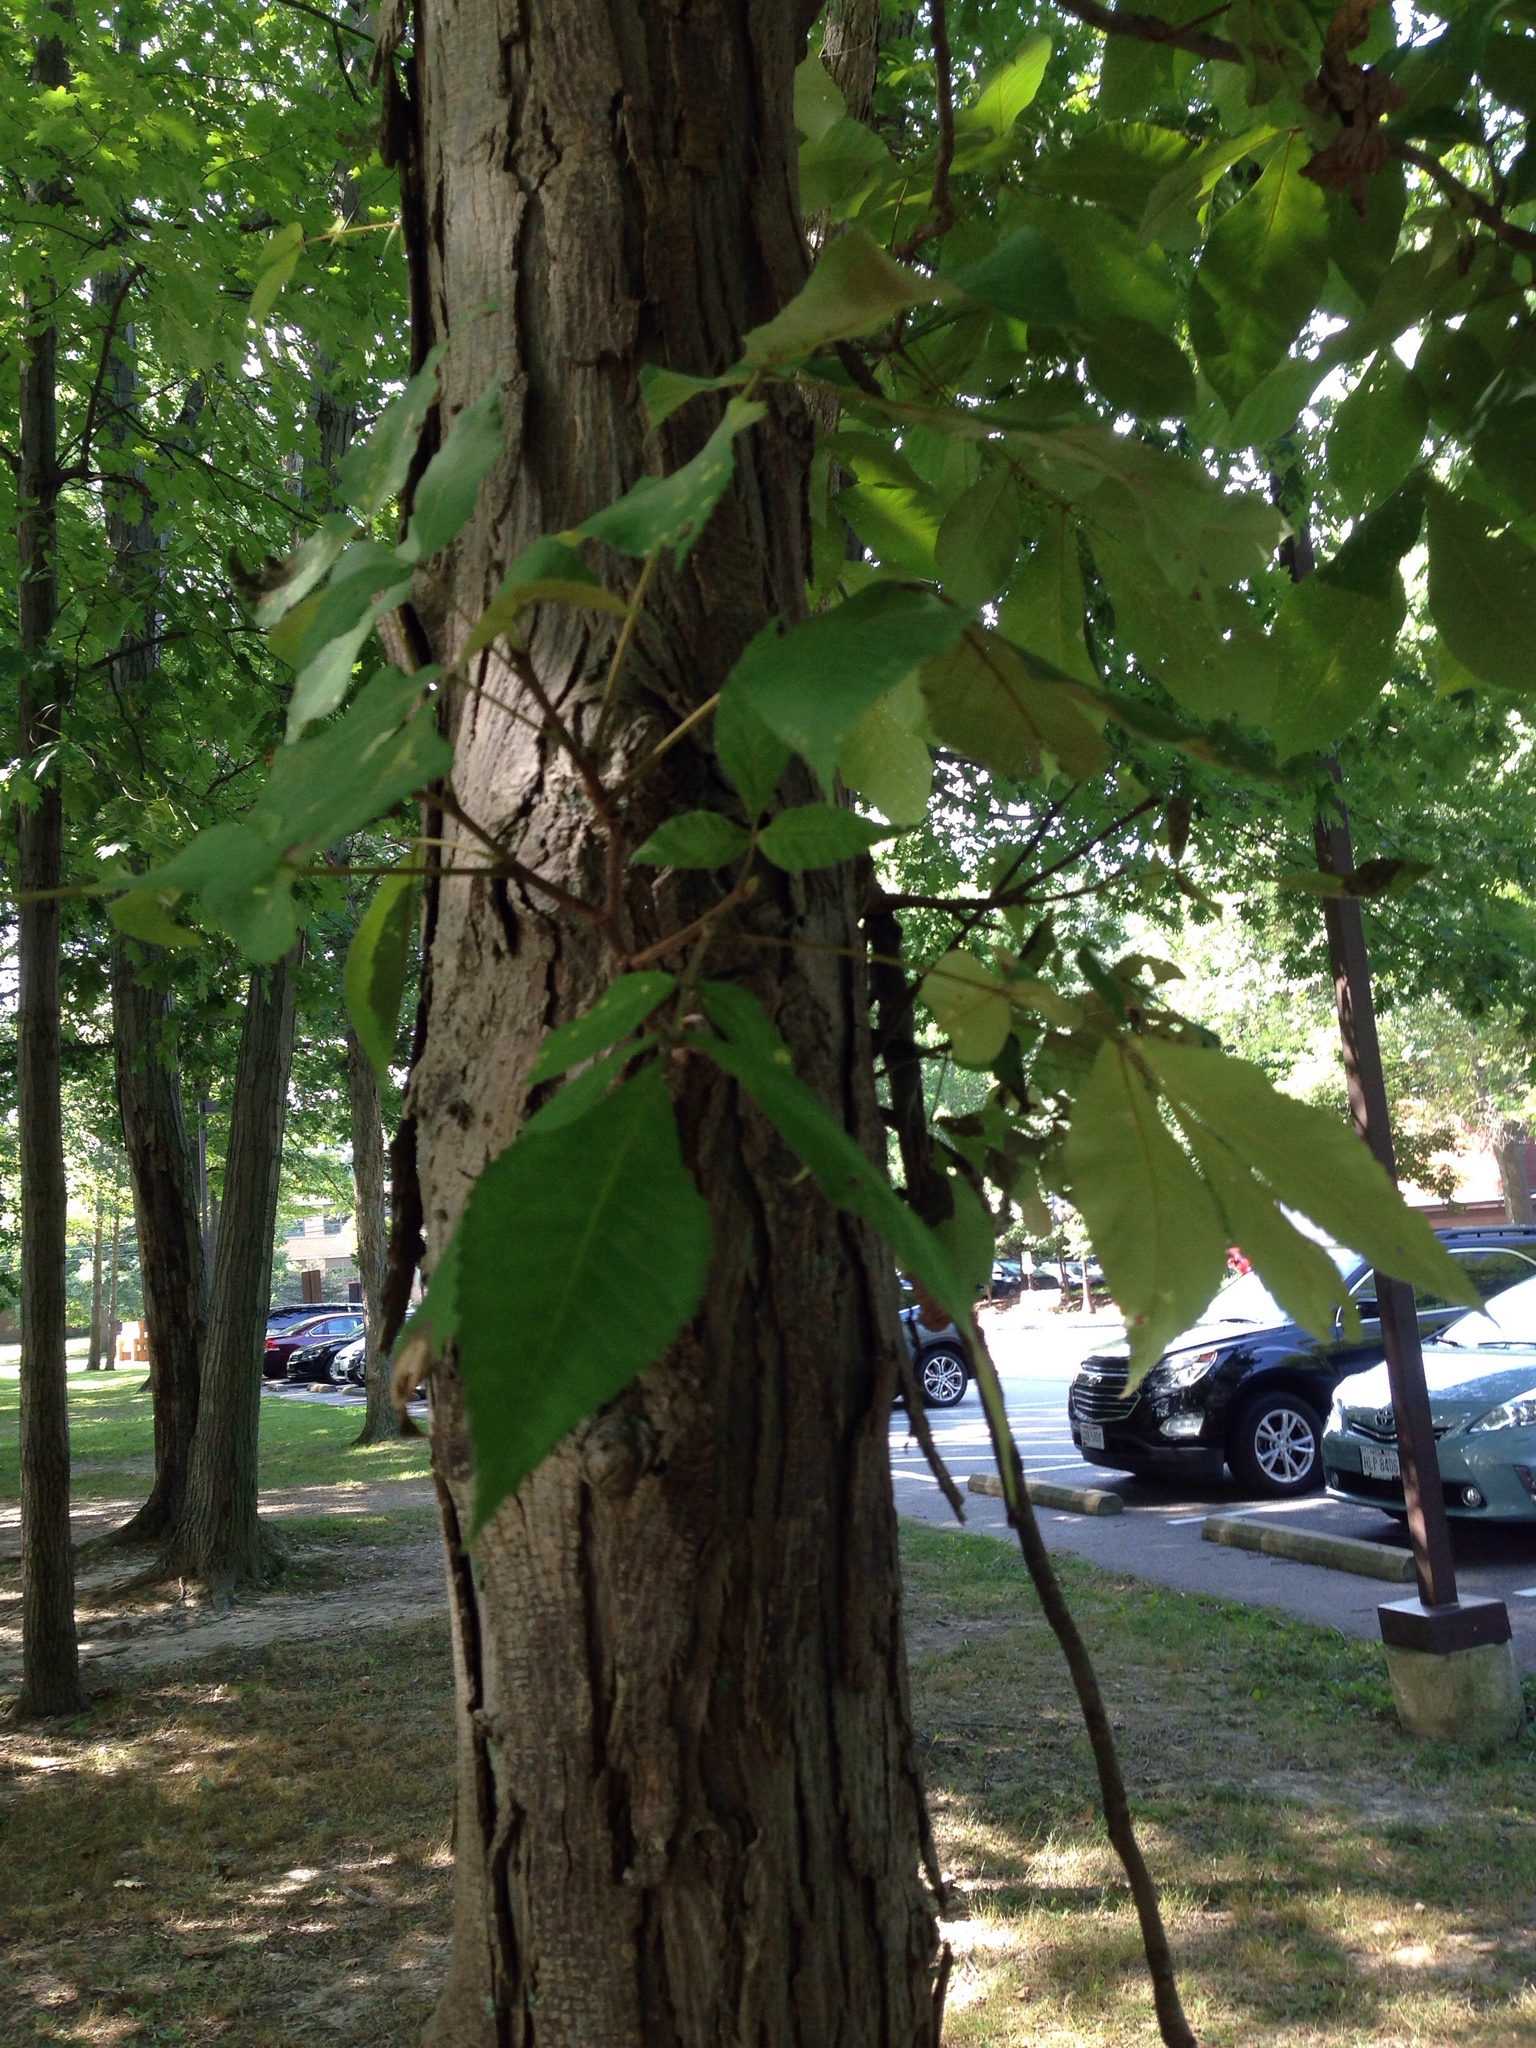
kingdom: Plantae
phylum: Tracheophyta
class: Magnoliopsida
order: Fagales
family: Juglandaceae
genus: Carya
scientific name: Carya ovata
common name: Shagbark hickory
